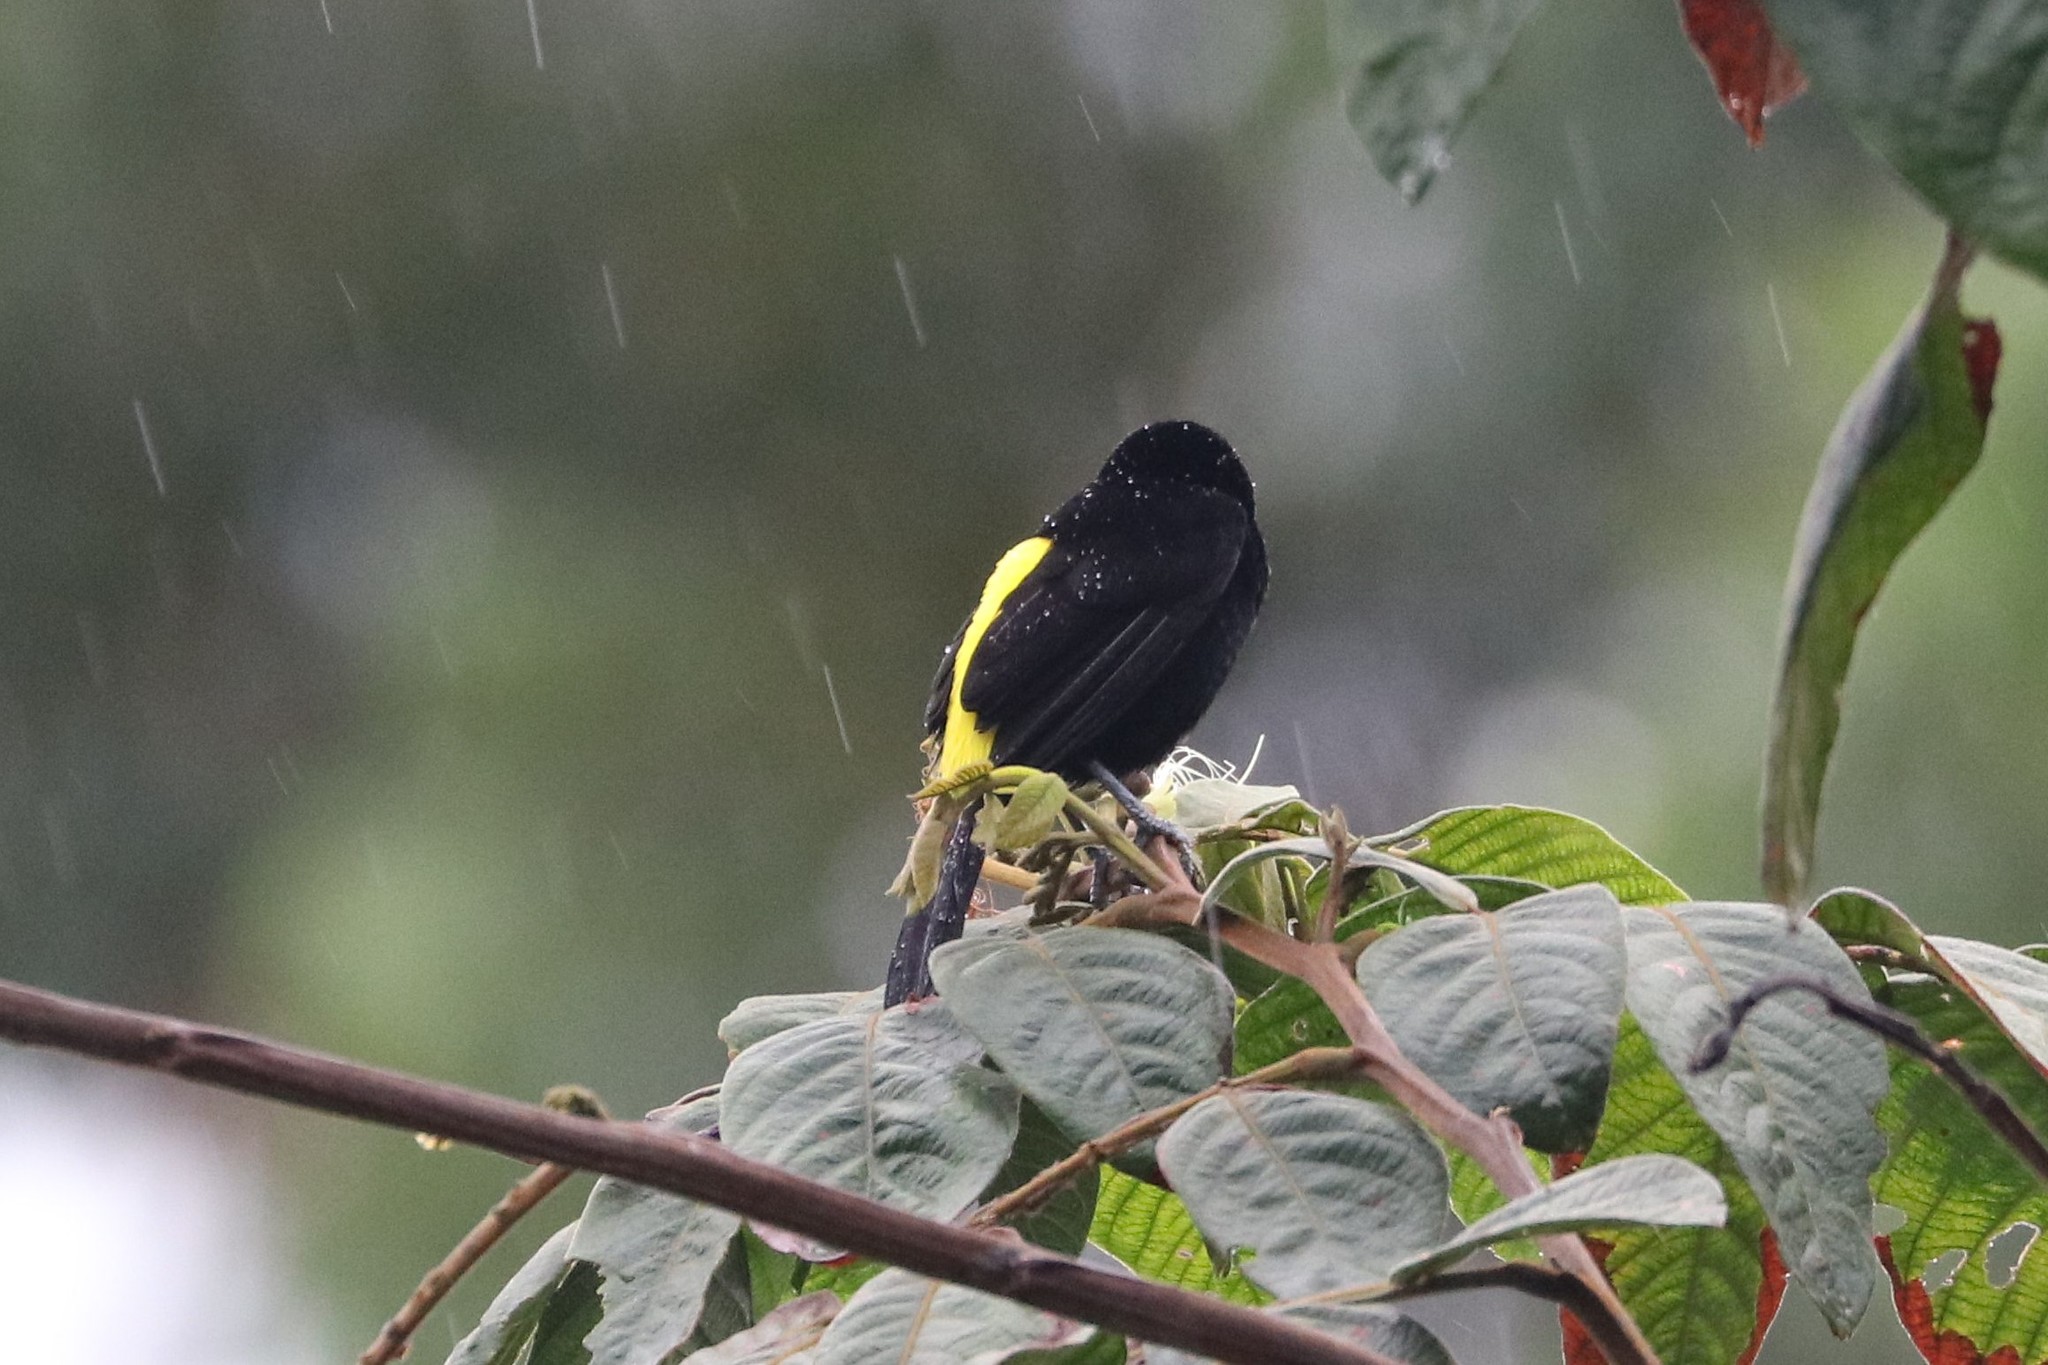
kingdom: Animalia
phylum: Chordata
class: Aves
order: Passeriformes
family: Thraupidae
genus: Ramphocelus
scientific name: Ramphocelus icteronotus
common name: Lemon-rumped tanager
